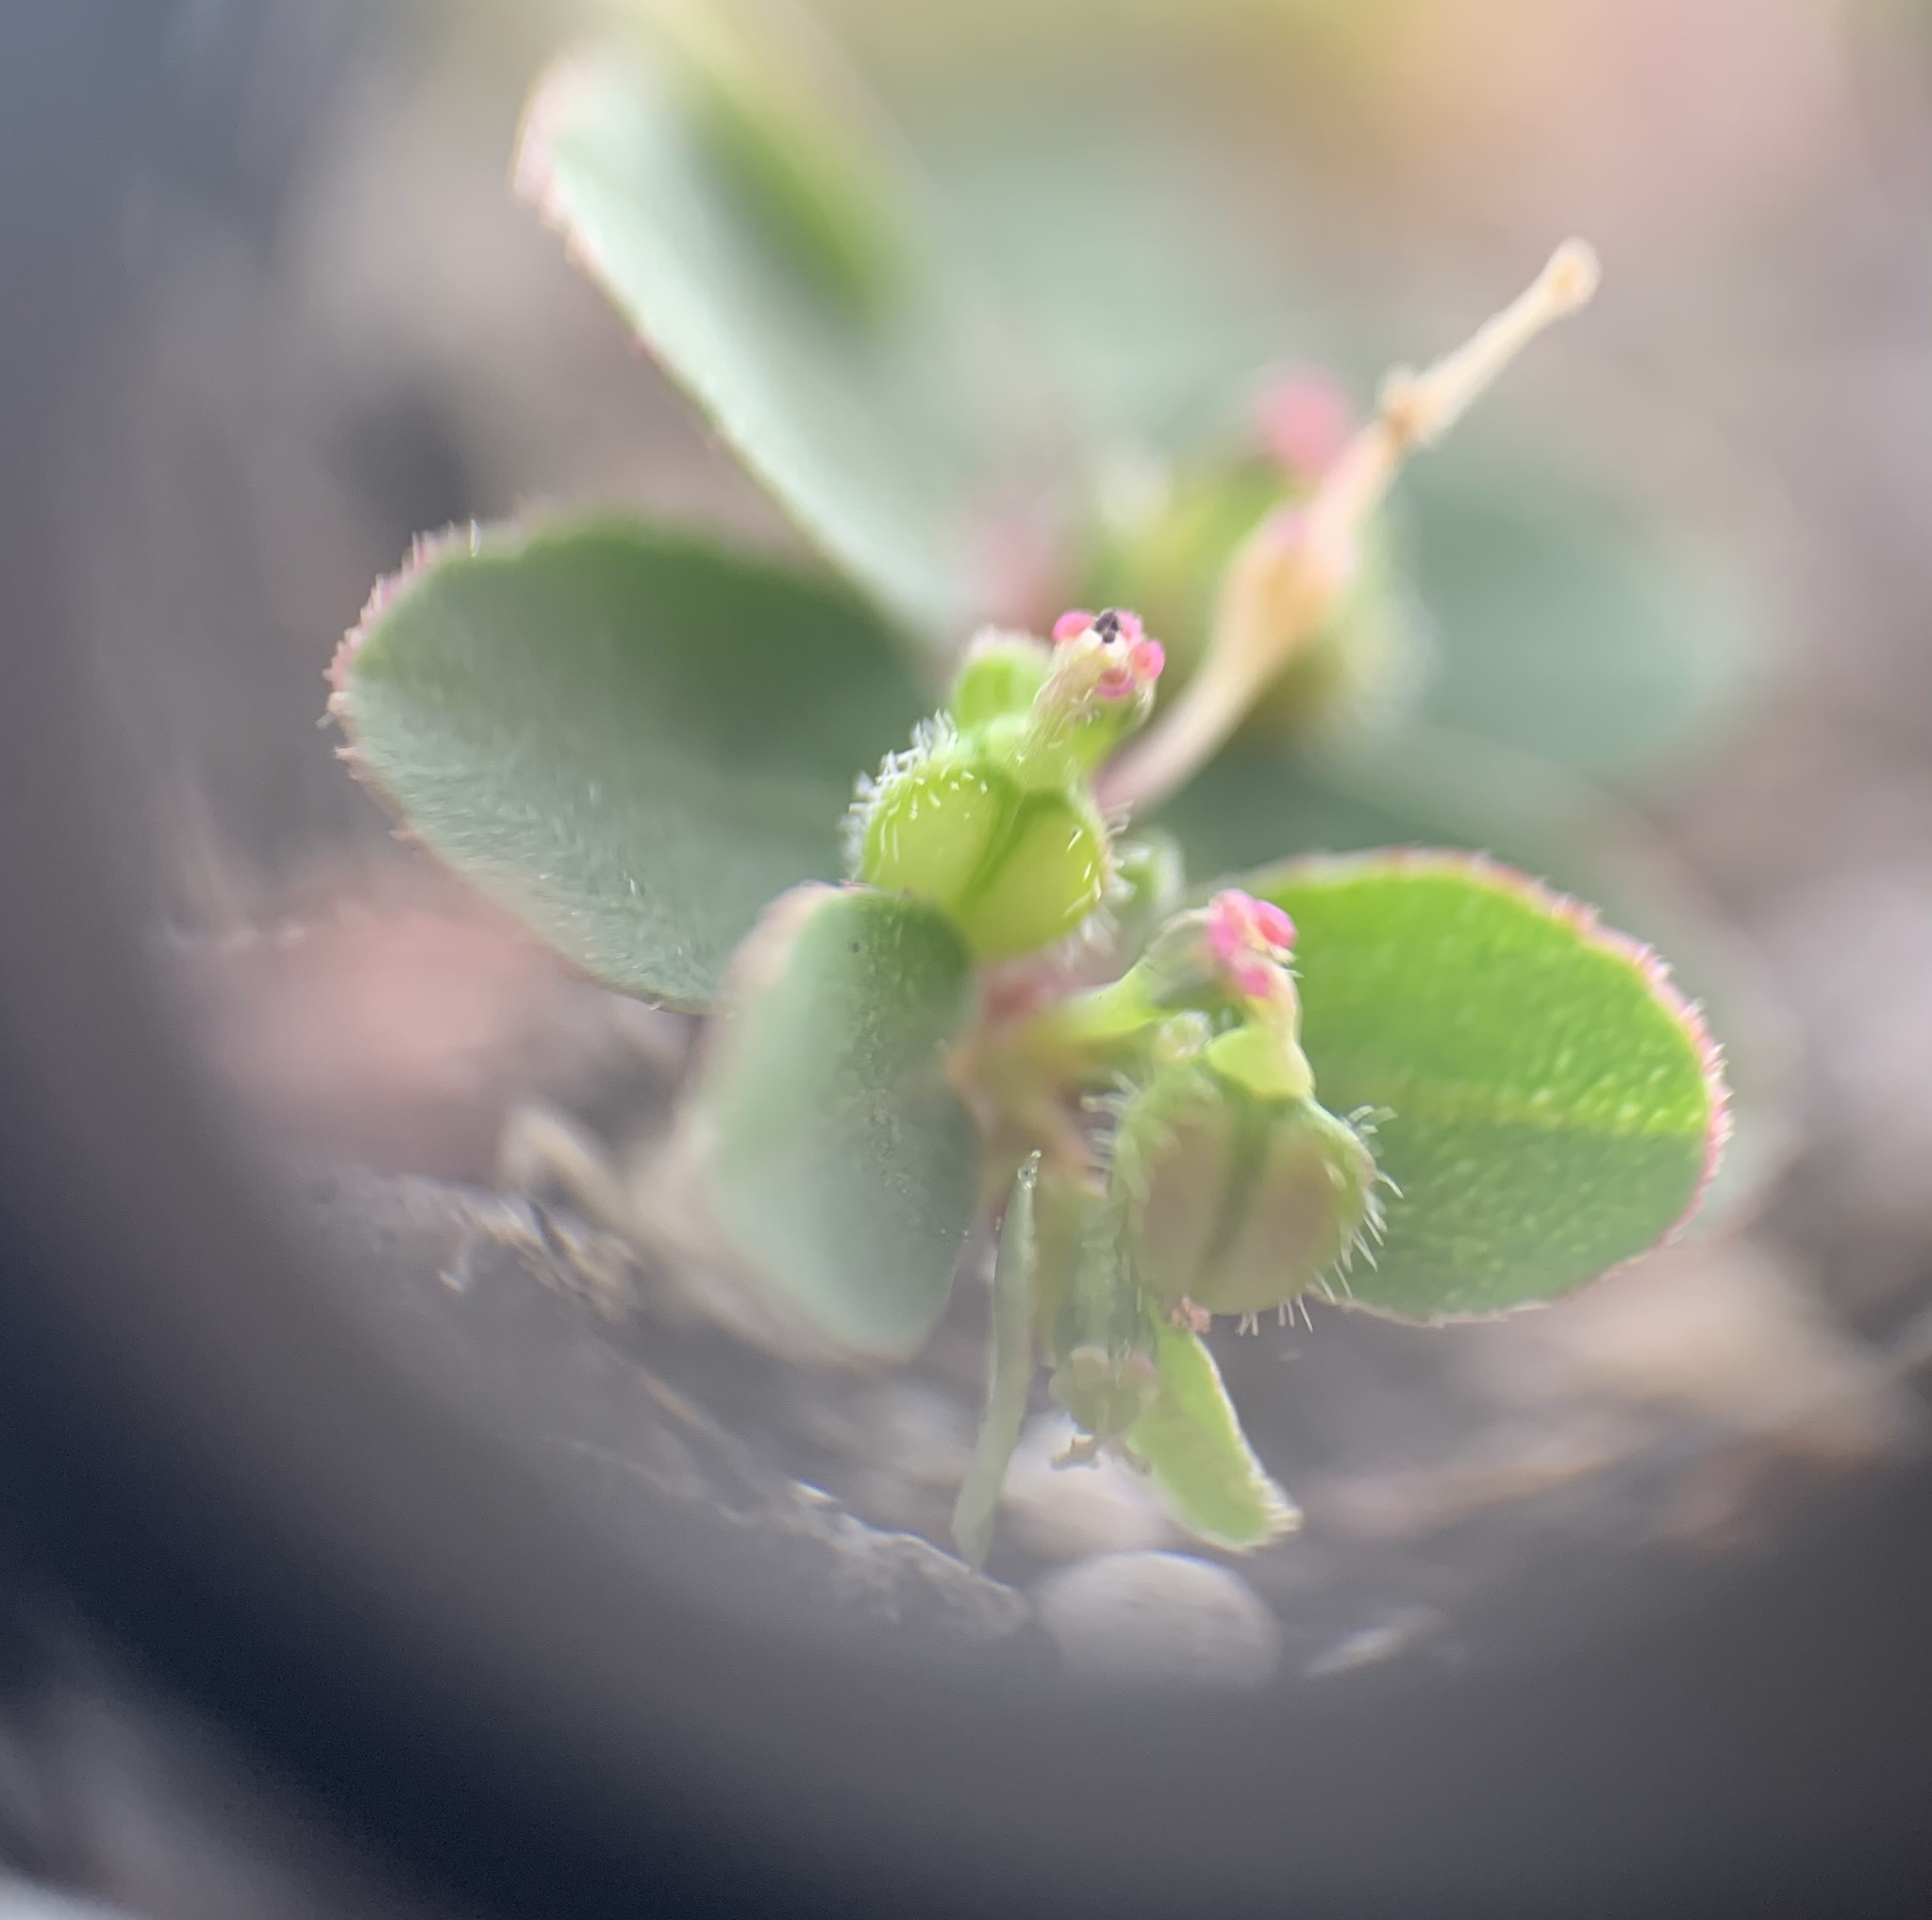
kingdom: Plantae
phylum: Tracheophyta
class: Magnoliopsida
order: Malpighiales
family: Euphorbiaceae
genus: Euphorbia
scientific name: Euphorbia prostrata
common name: Prostrate sandmat
